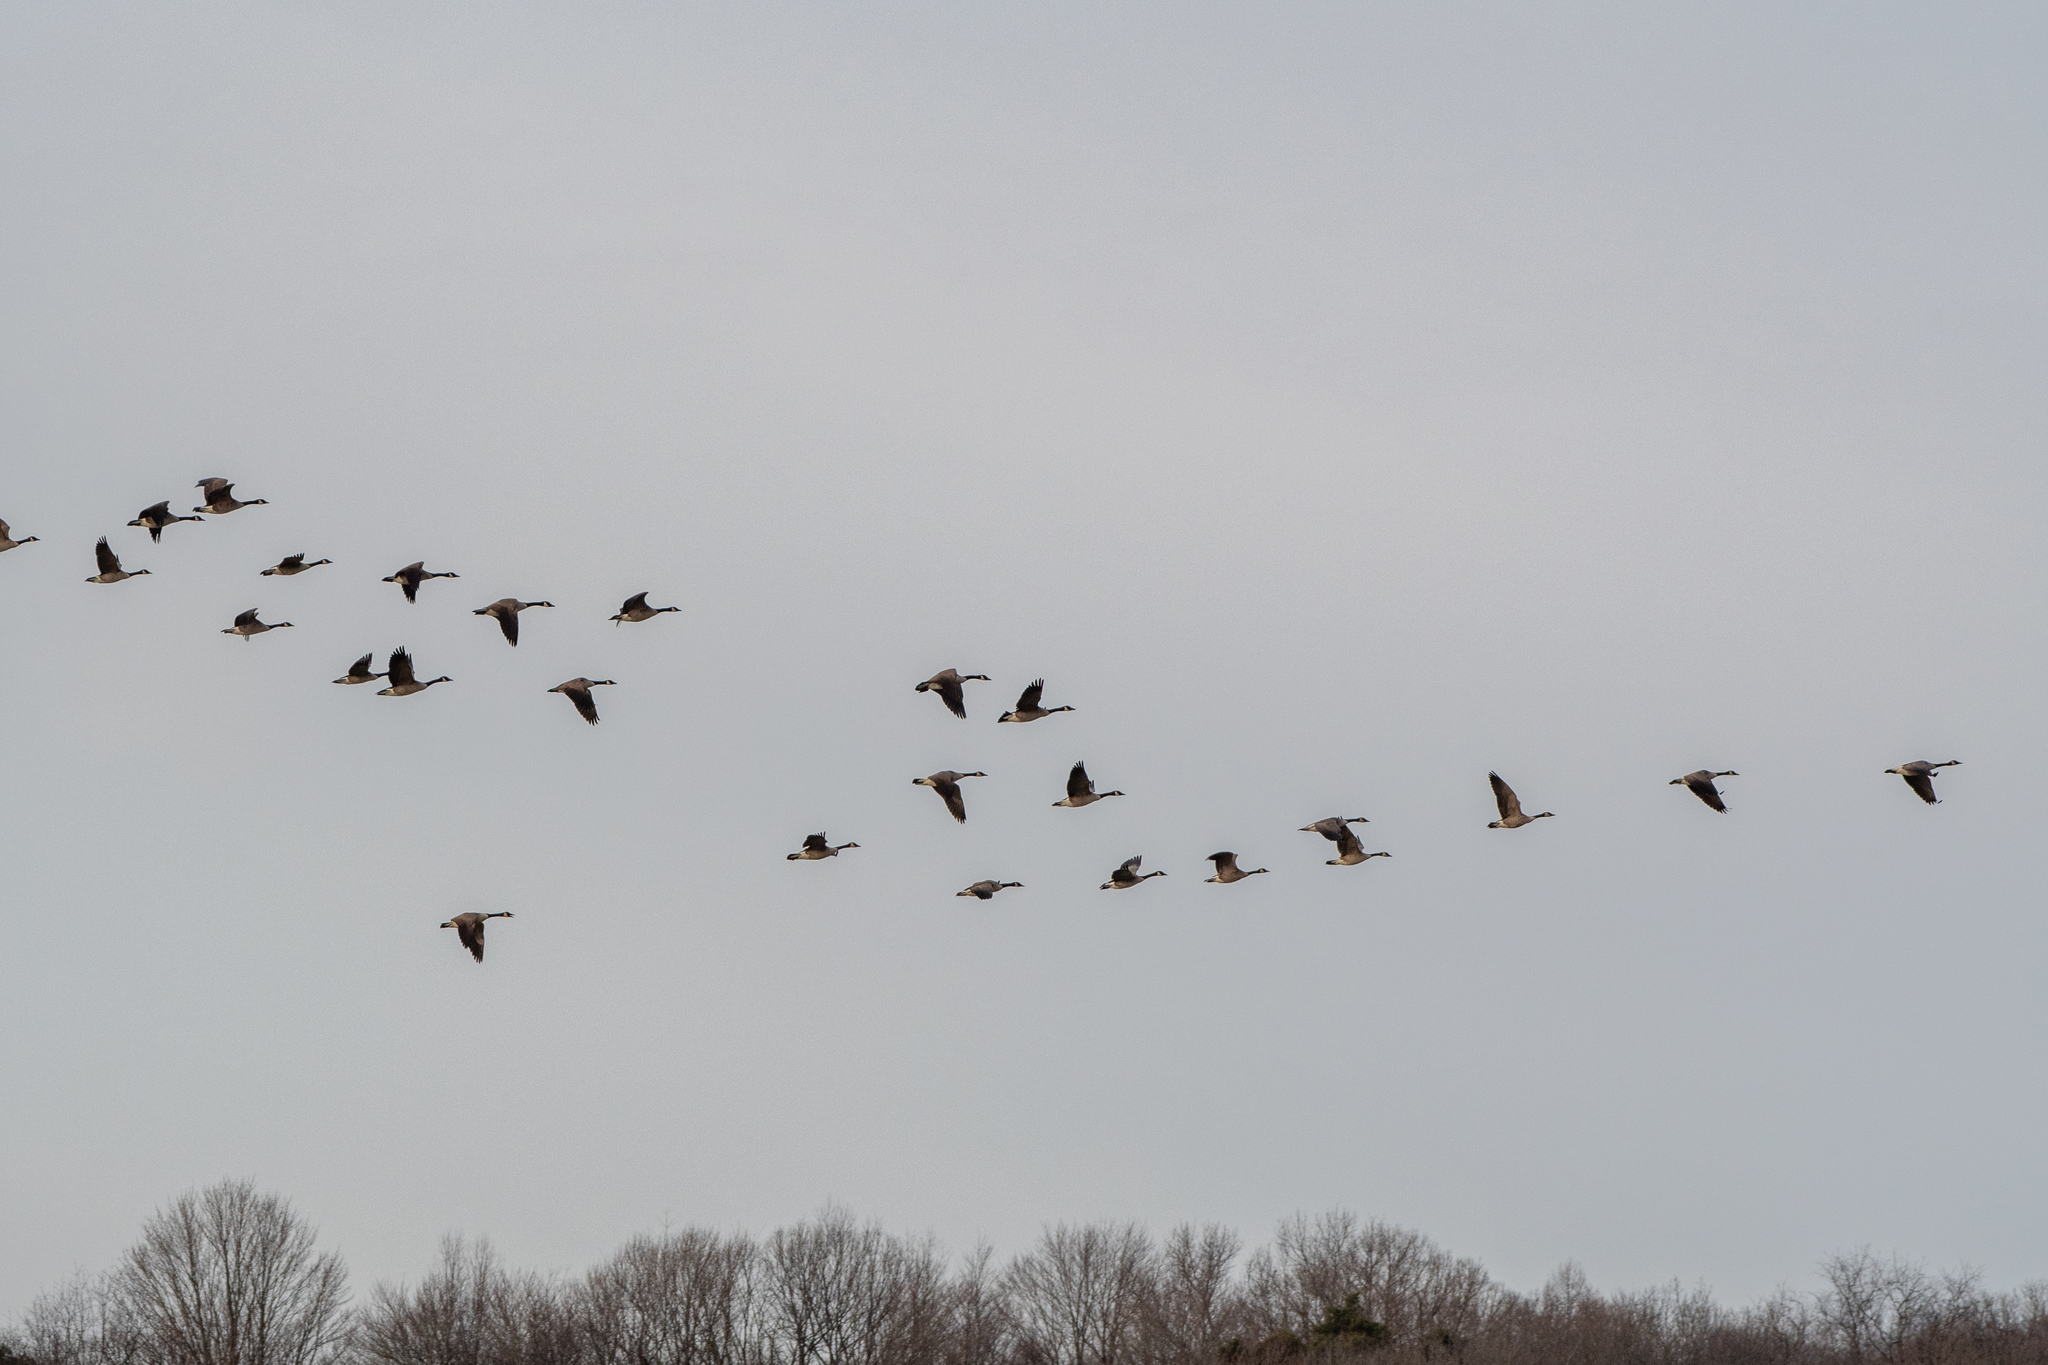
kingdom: Animalia
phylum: Chordata
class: Aves
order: Anseriformes
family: Anatidae
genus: Branta
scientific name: Branta canadensis
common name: Canada goose
